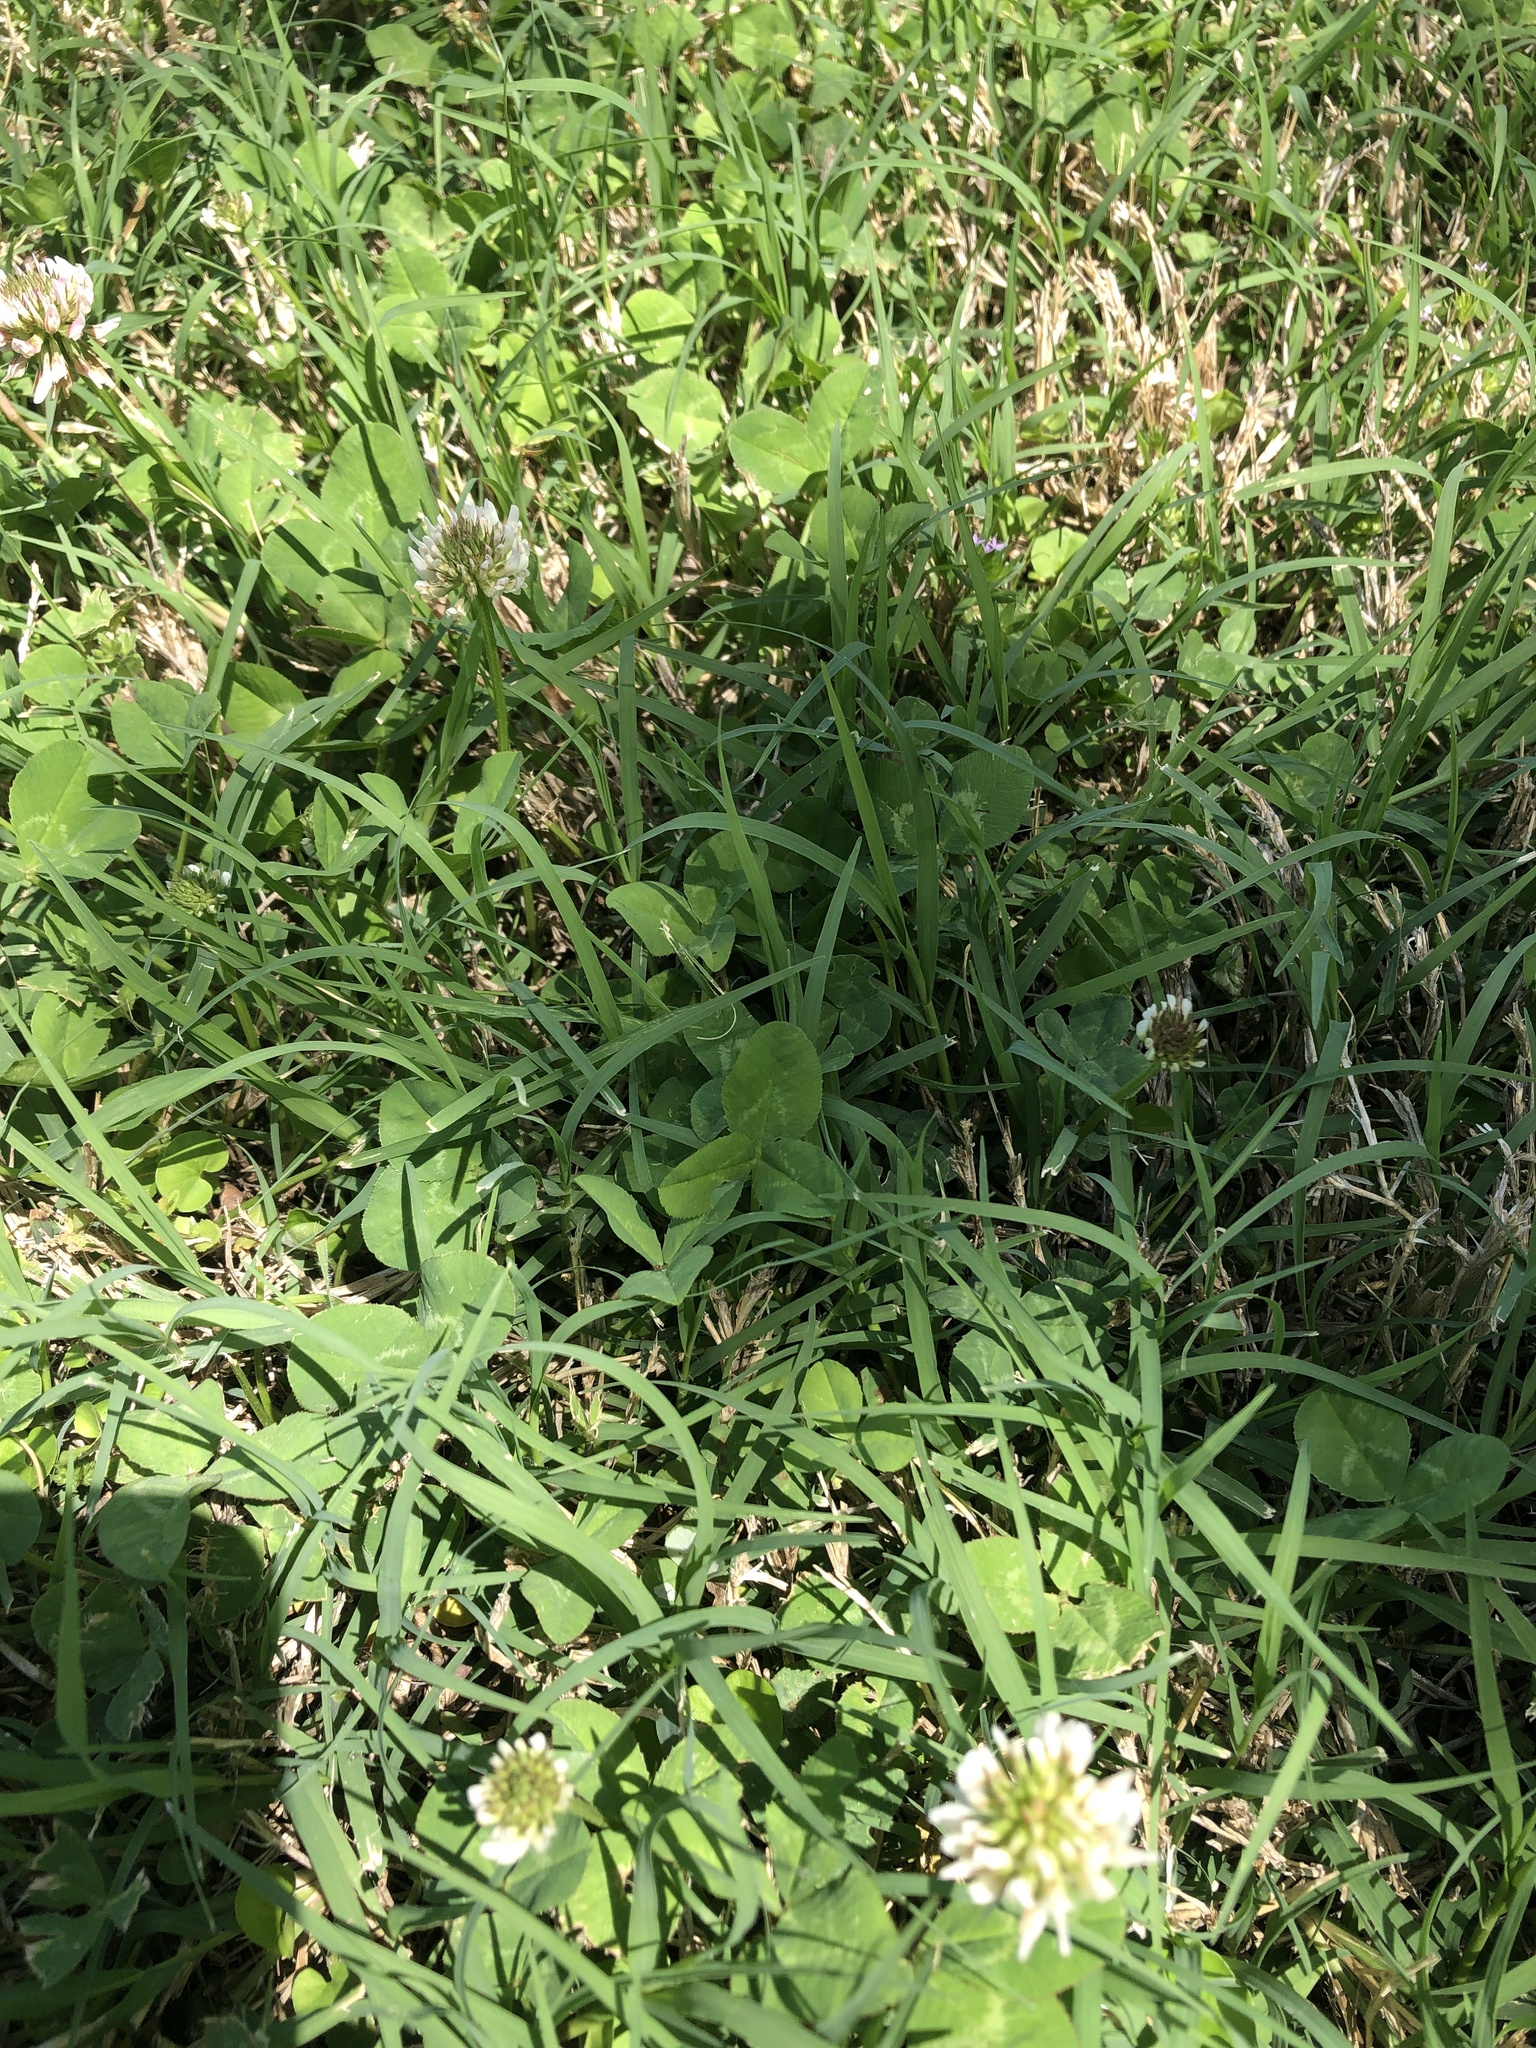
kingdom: Plantae
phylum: Tracheophyta
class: Magnoliopsida
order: Fabales
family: Fabaceae
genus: Trifolium
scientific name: Trifolium repens
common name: White clover
